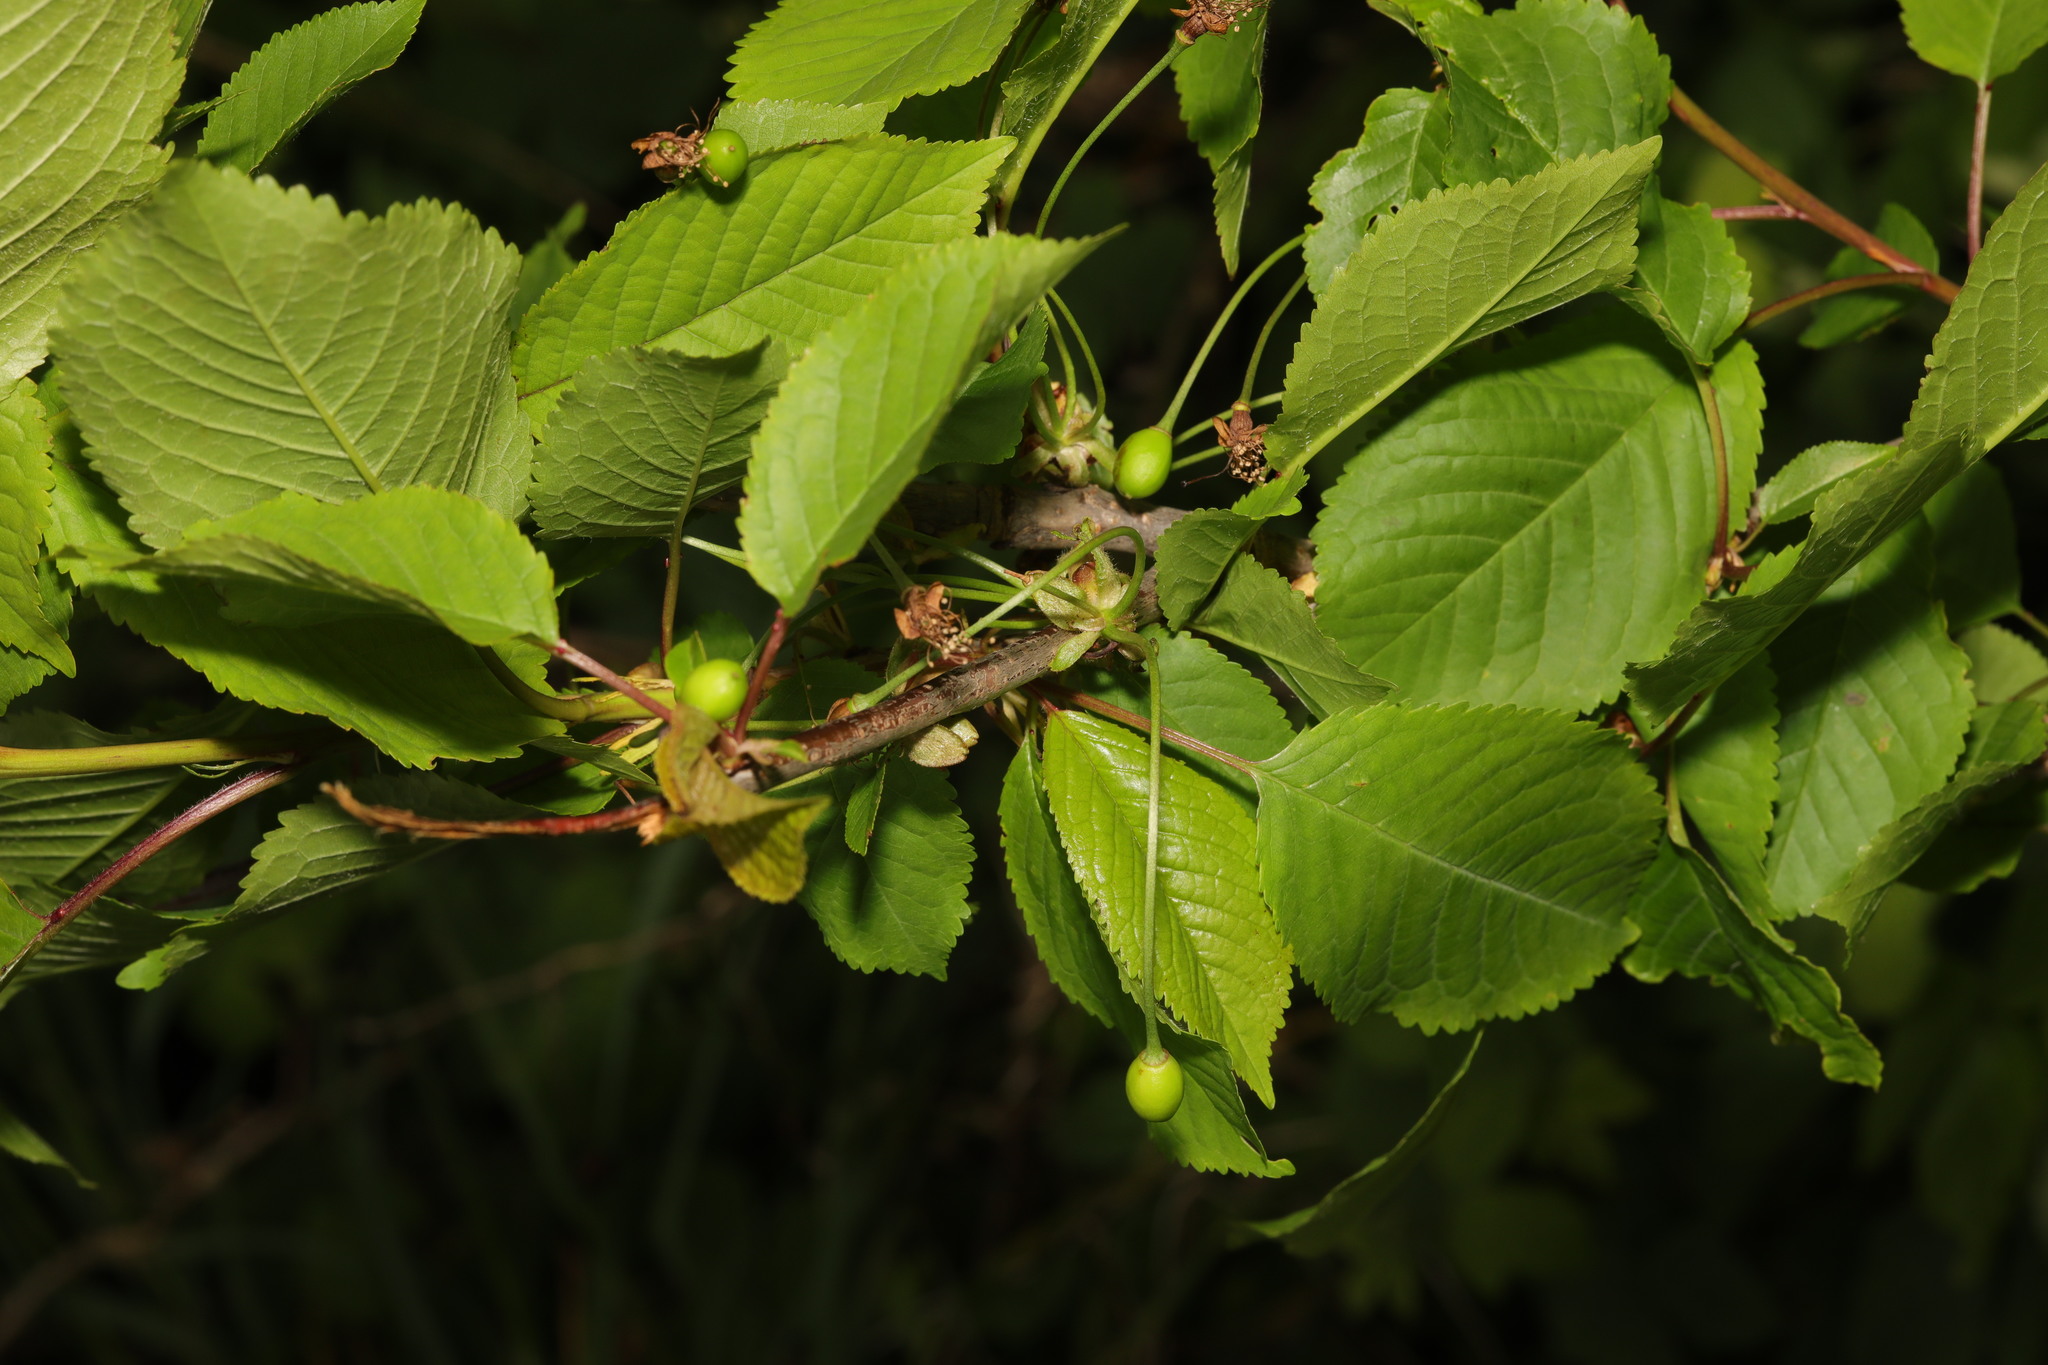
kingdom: Plantae
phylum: Tracheophyta
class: Magnoliopsida
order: Rosales
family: Rosaceae
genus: Prunus
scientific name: Prunus avium
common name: Sweet cherry
